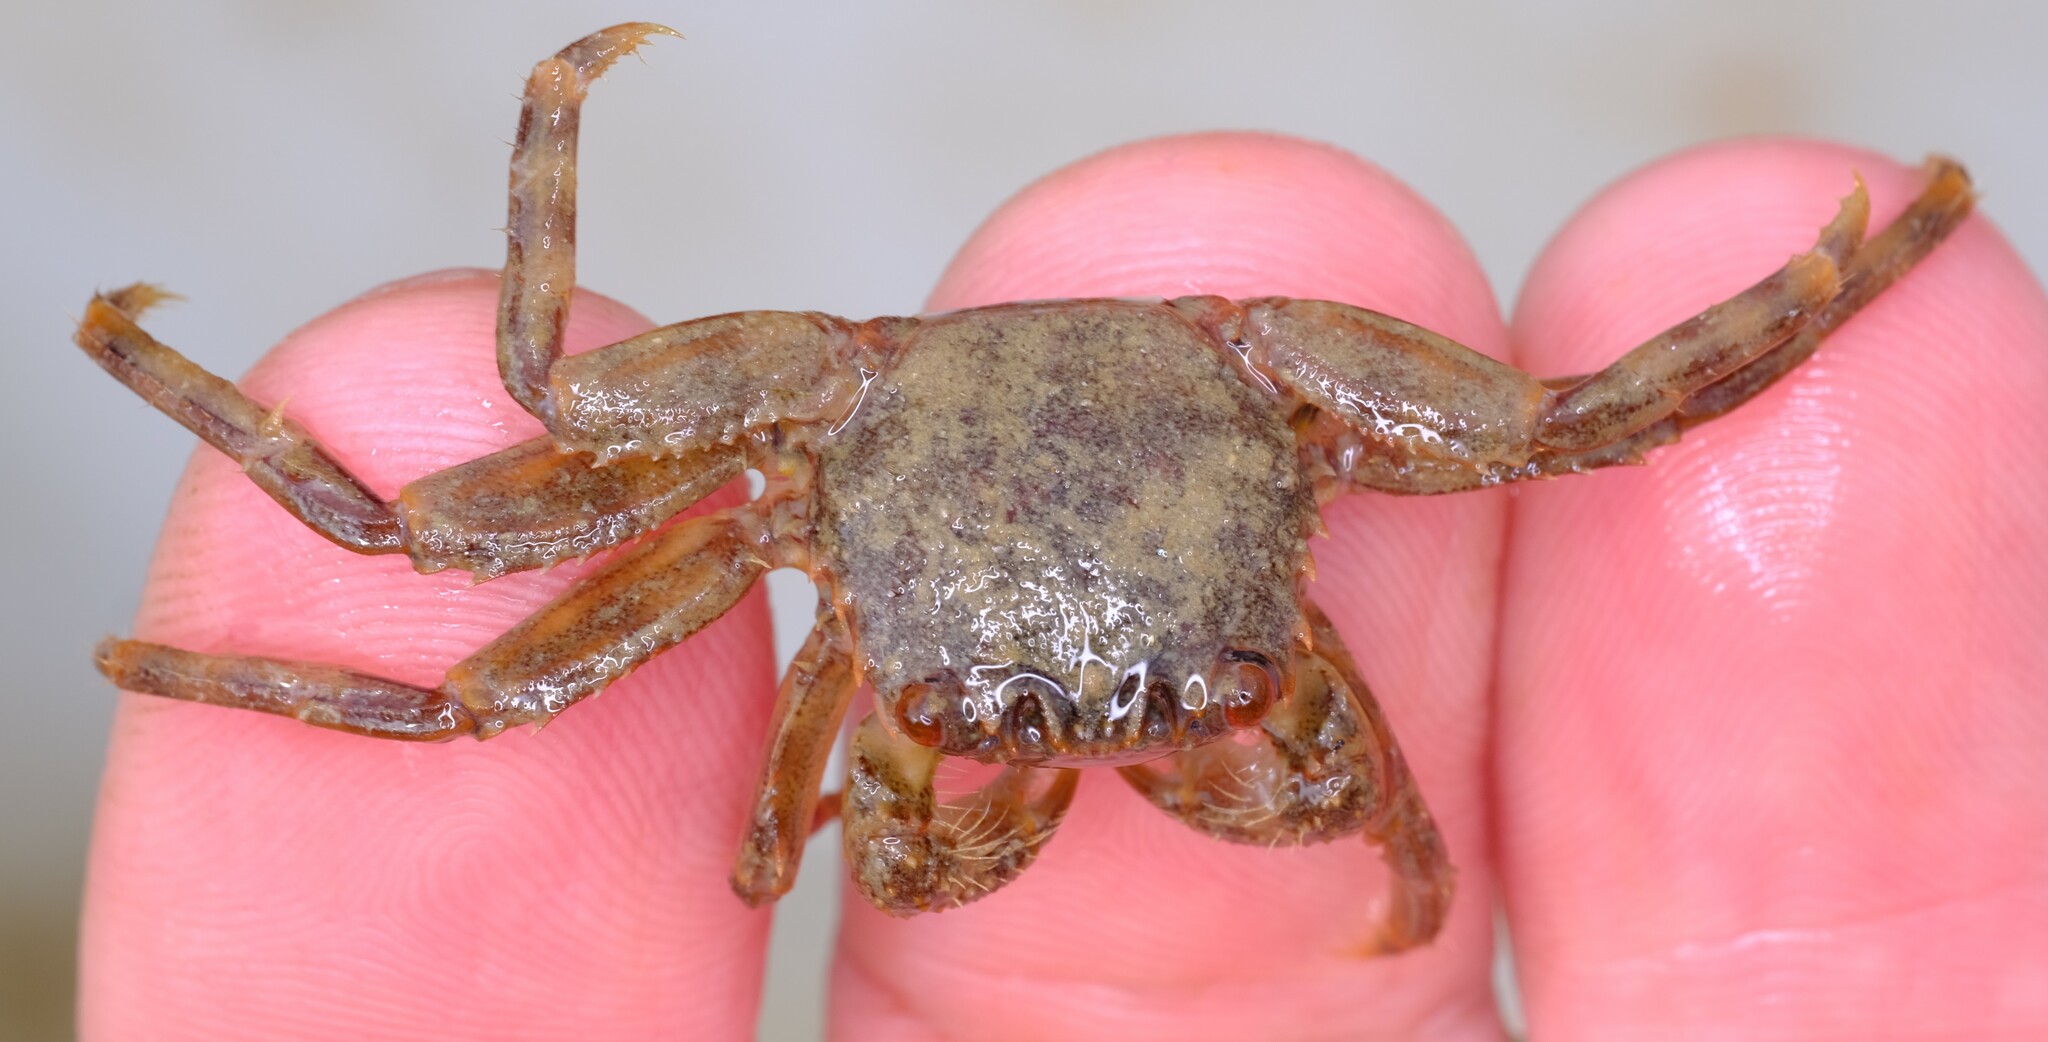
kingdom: Animalia
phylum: Arthropoda
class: Malacostraca
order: Decapoda
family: Plagusiidae
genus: Guinusia
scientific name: Guinusia chabrus
